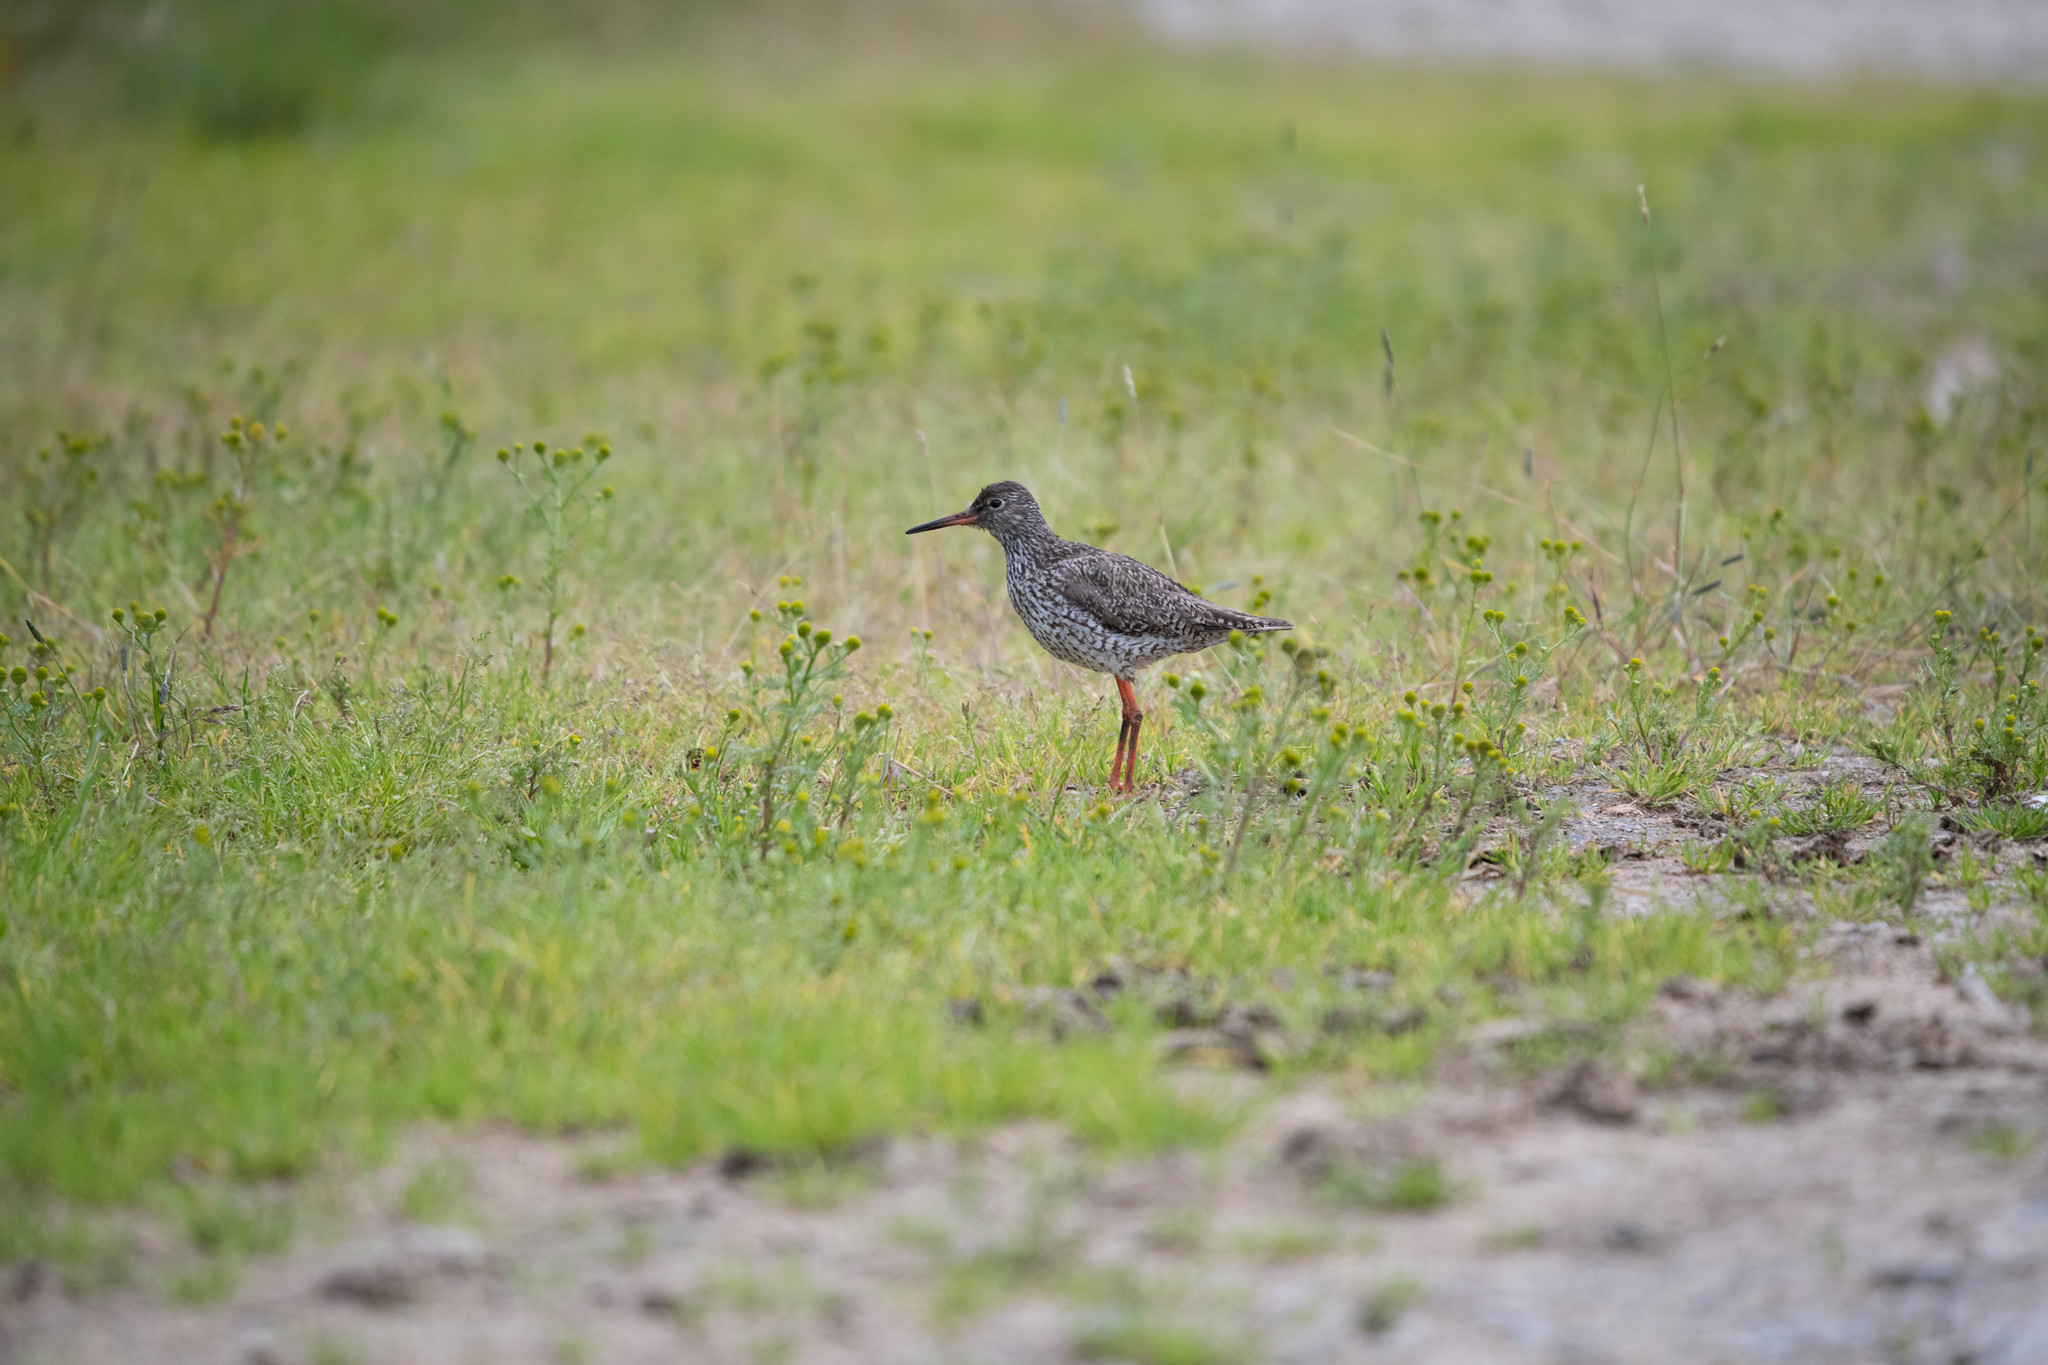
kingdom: Animalia
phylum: Chordata
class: Aves
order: Charadriiformes
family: Scolopacidae
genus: Tringa
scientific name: Tringa totanus
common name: Common redshank
